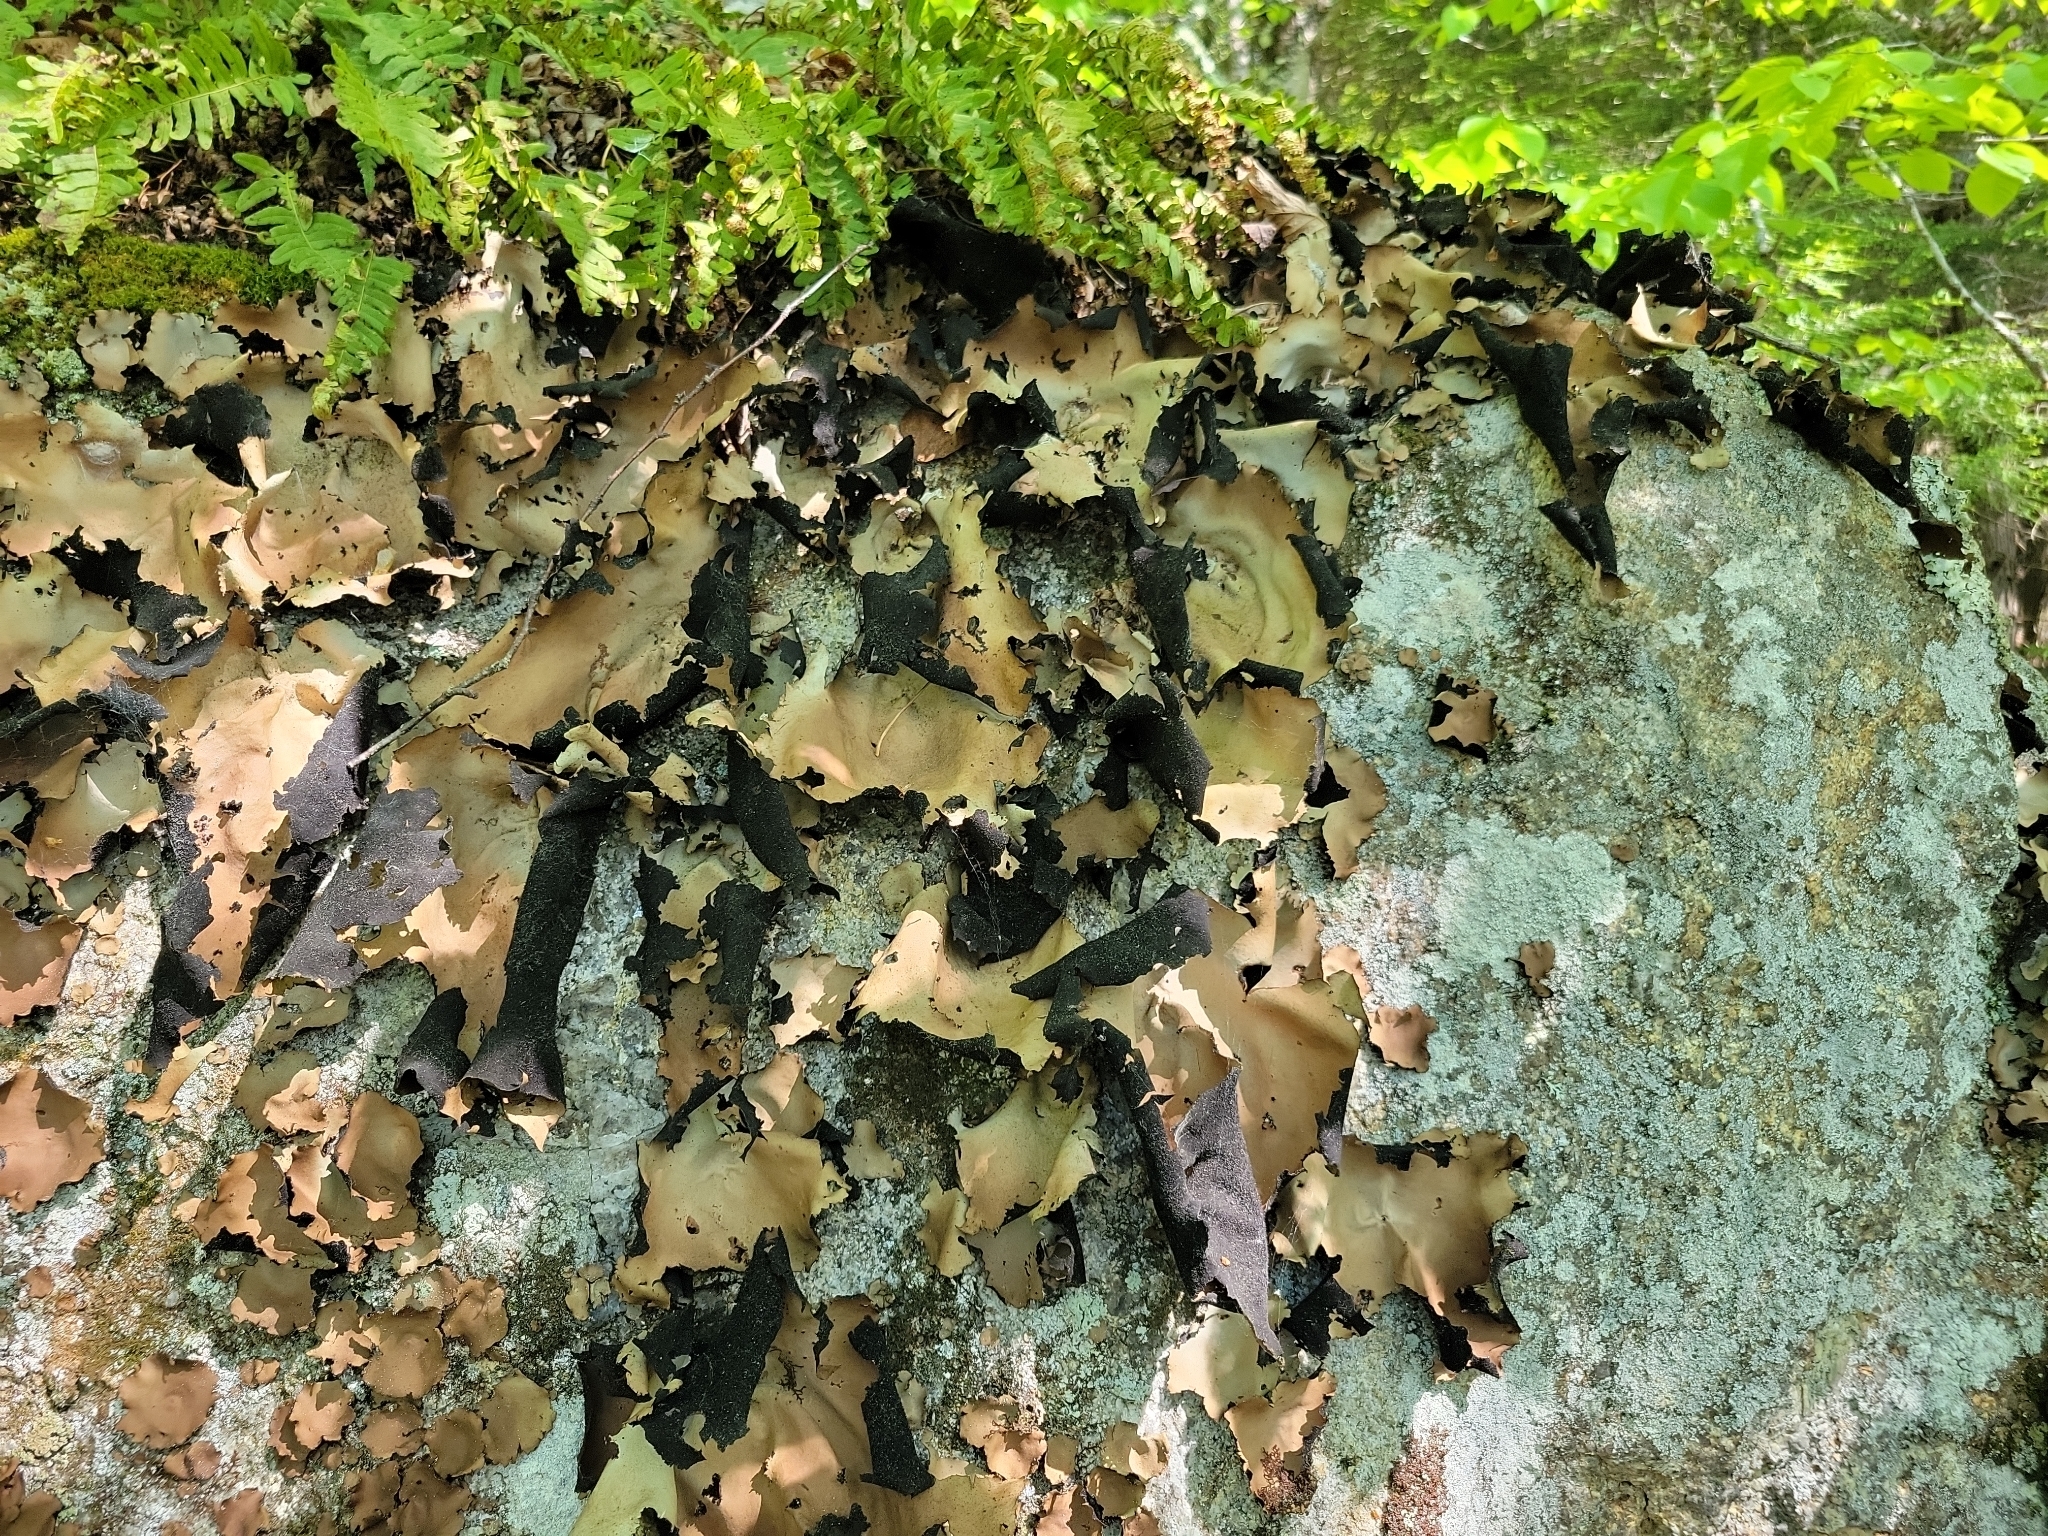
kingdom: Fungi
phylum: Ascomycota
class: Lecanoromycetes
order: Umbilicariales
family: Umbilicariaceae
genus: Umbilicaria
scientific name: Umbilicaria mammulata
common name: Smooth rock tripe
